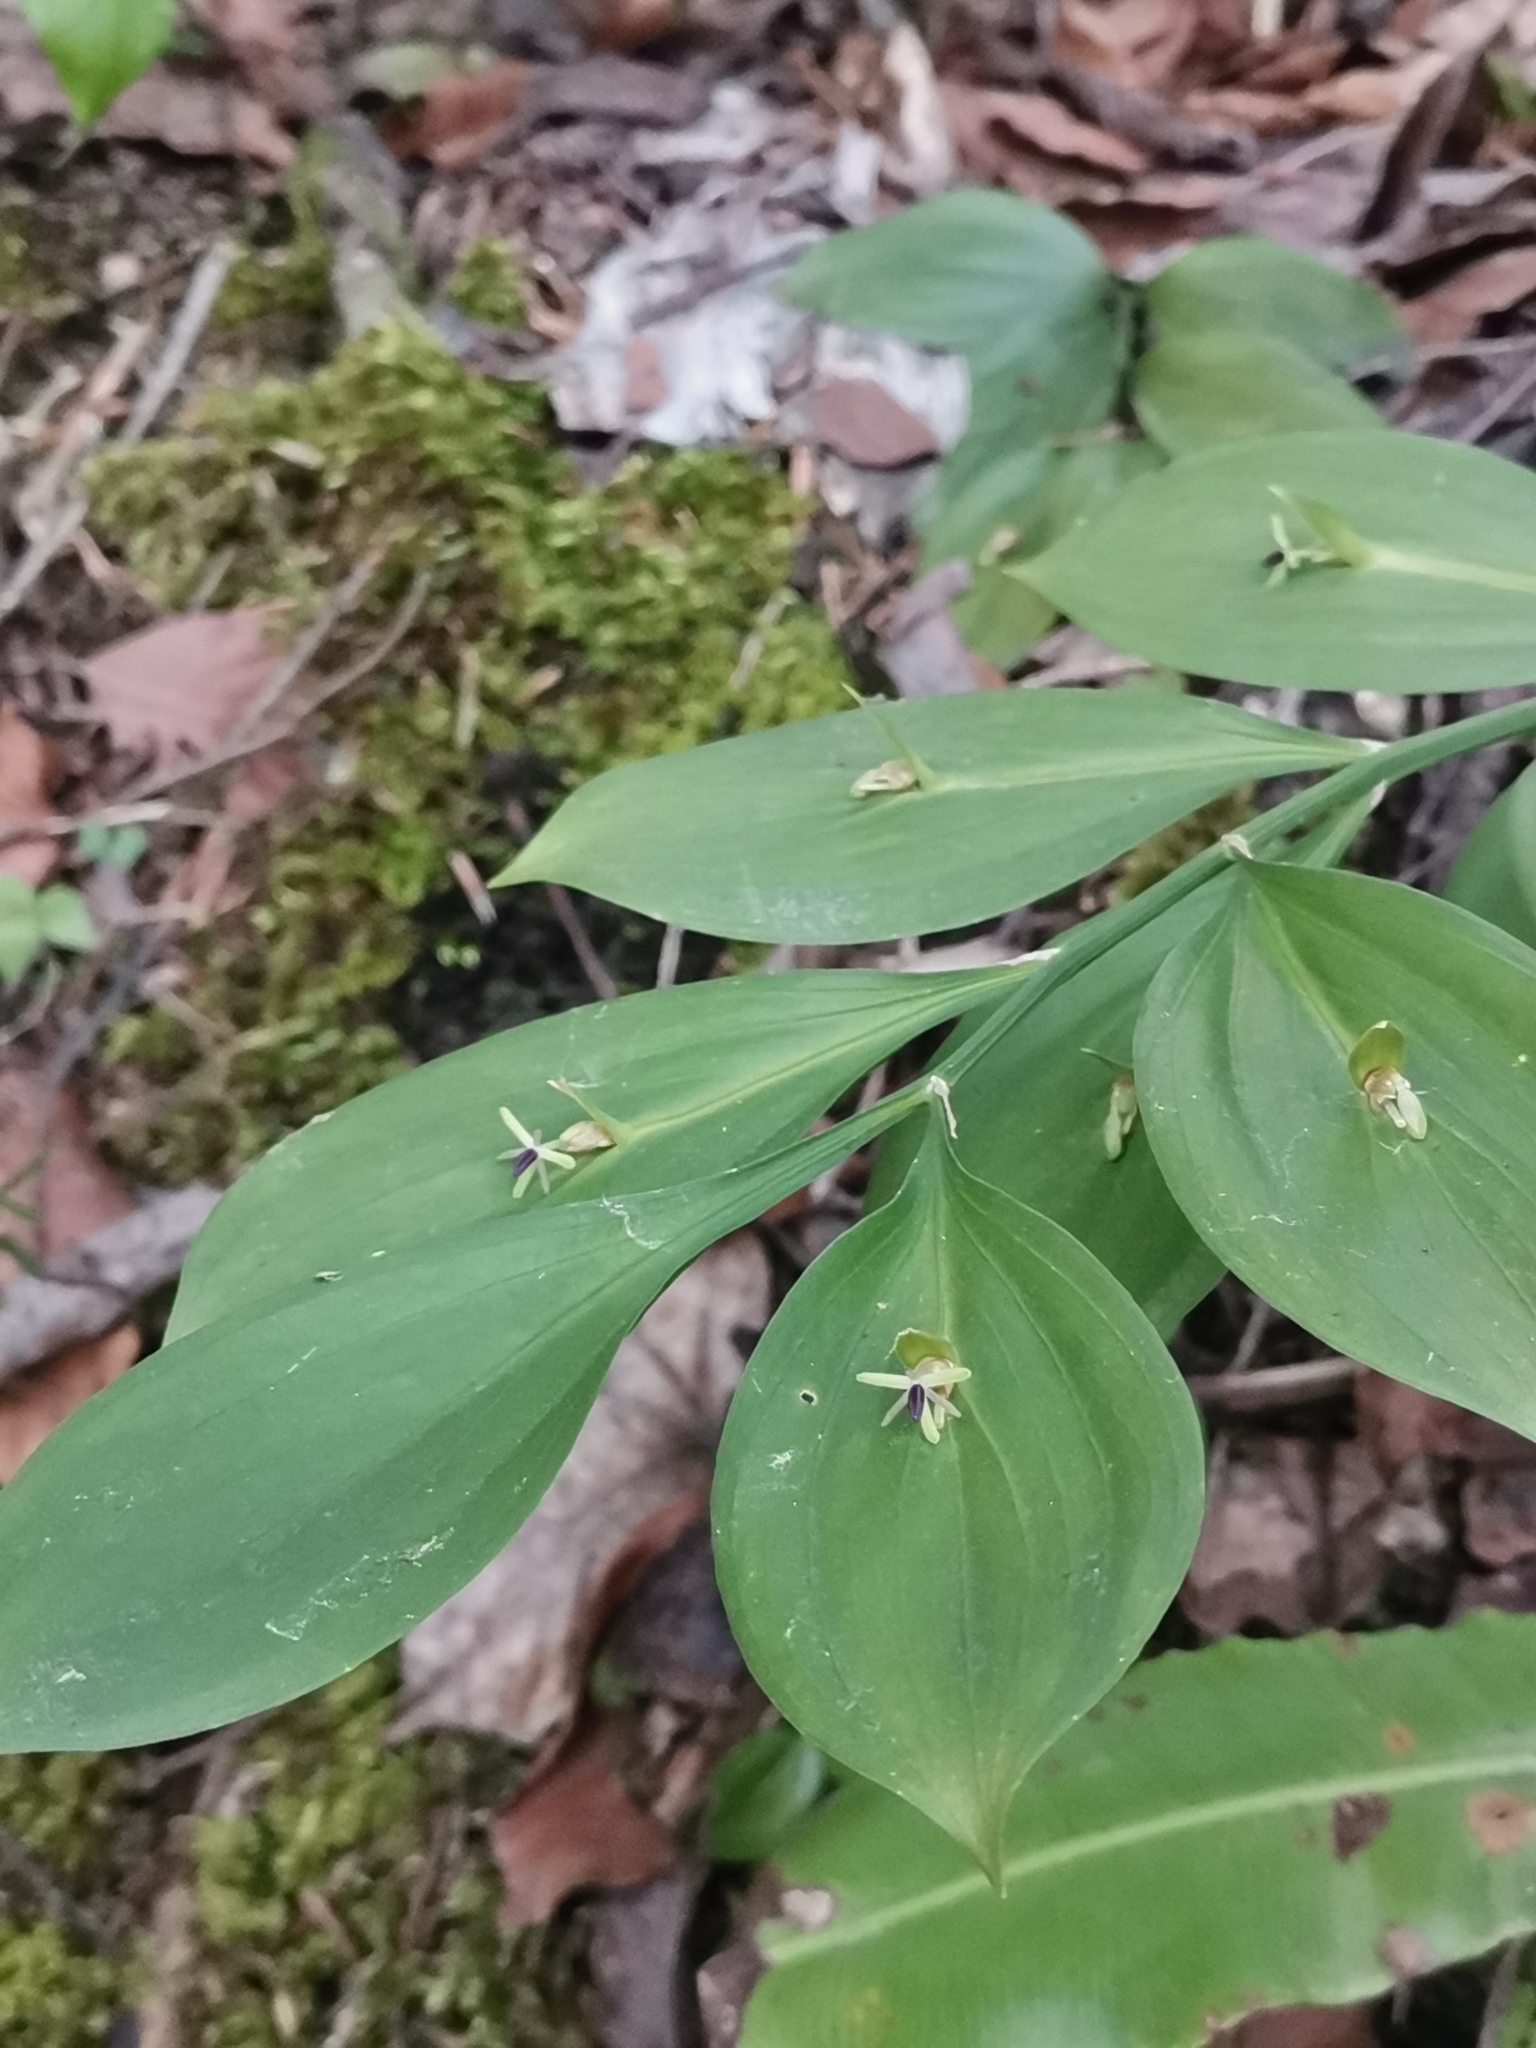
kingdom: Plantae
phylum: Tracheophyta
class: Liliopsida
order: Asparagales
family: Asparagaceae
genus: Ruscus
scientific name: Ruscus hypoglossum
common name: Spineless butcher's-broom
